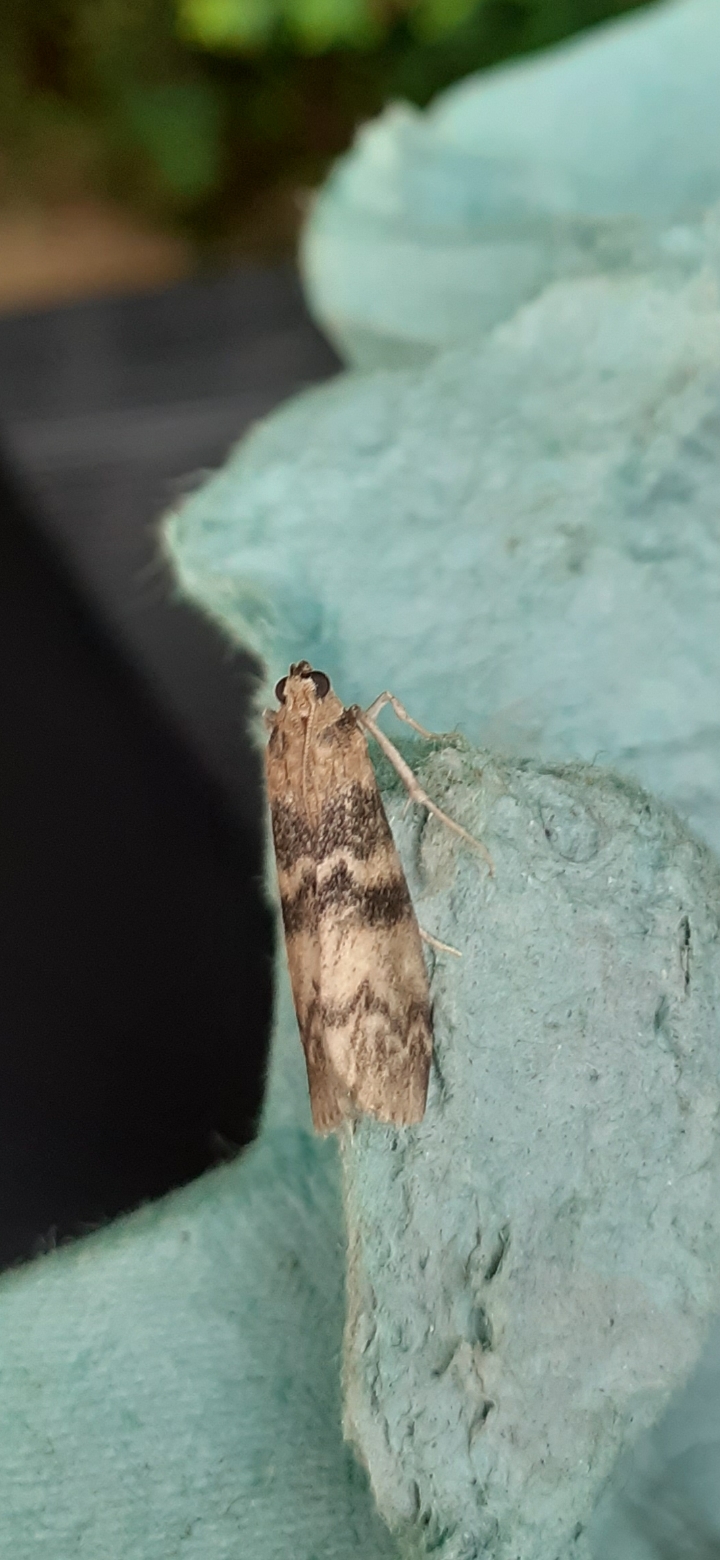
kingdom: Animalia
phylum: Arthropoda
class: Insecta
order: Lepidoptera
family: Pyralidae
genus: Euzophera
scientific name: Euzophera pinguis
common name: Ash-bark knot-horn
